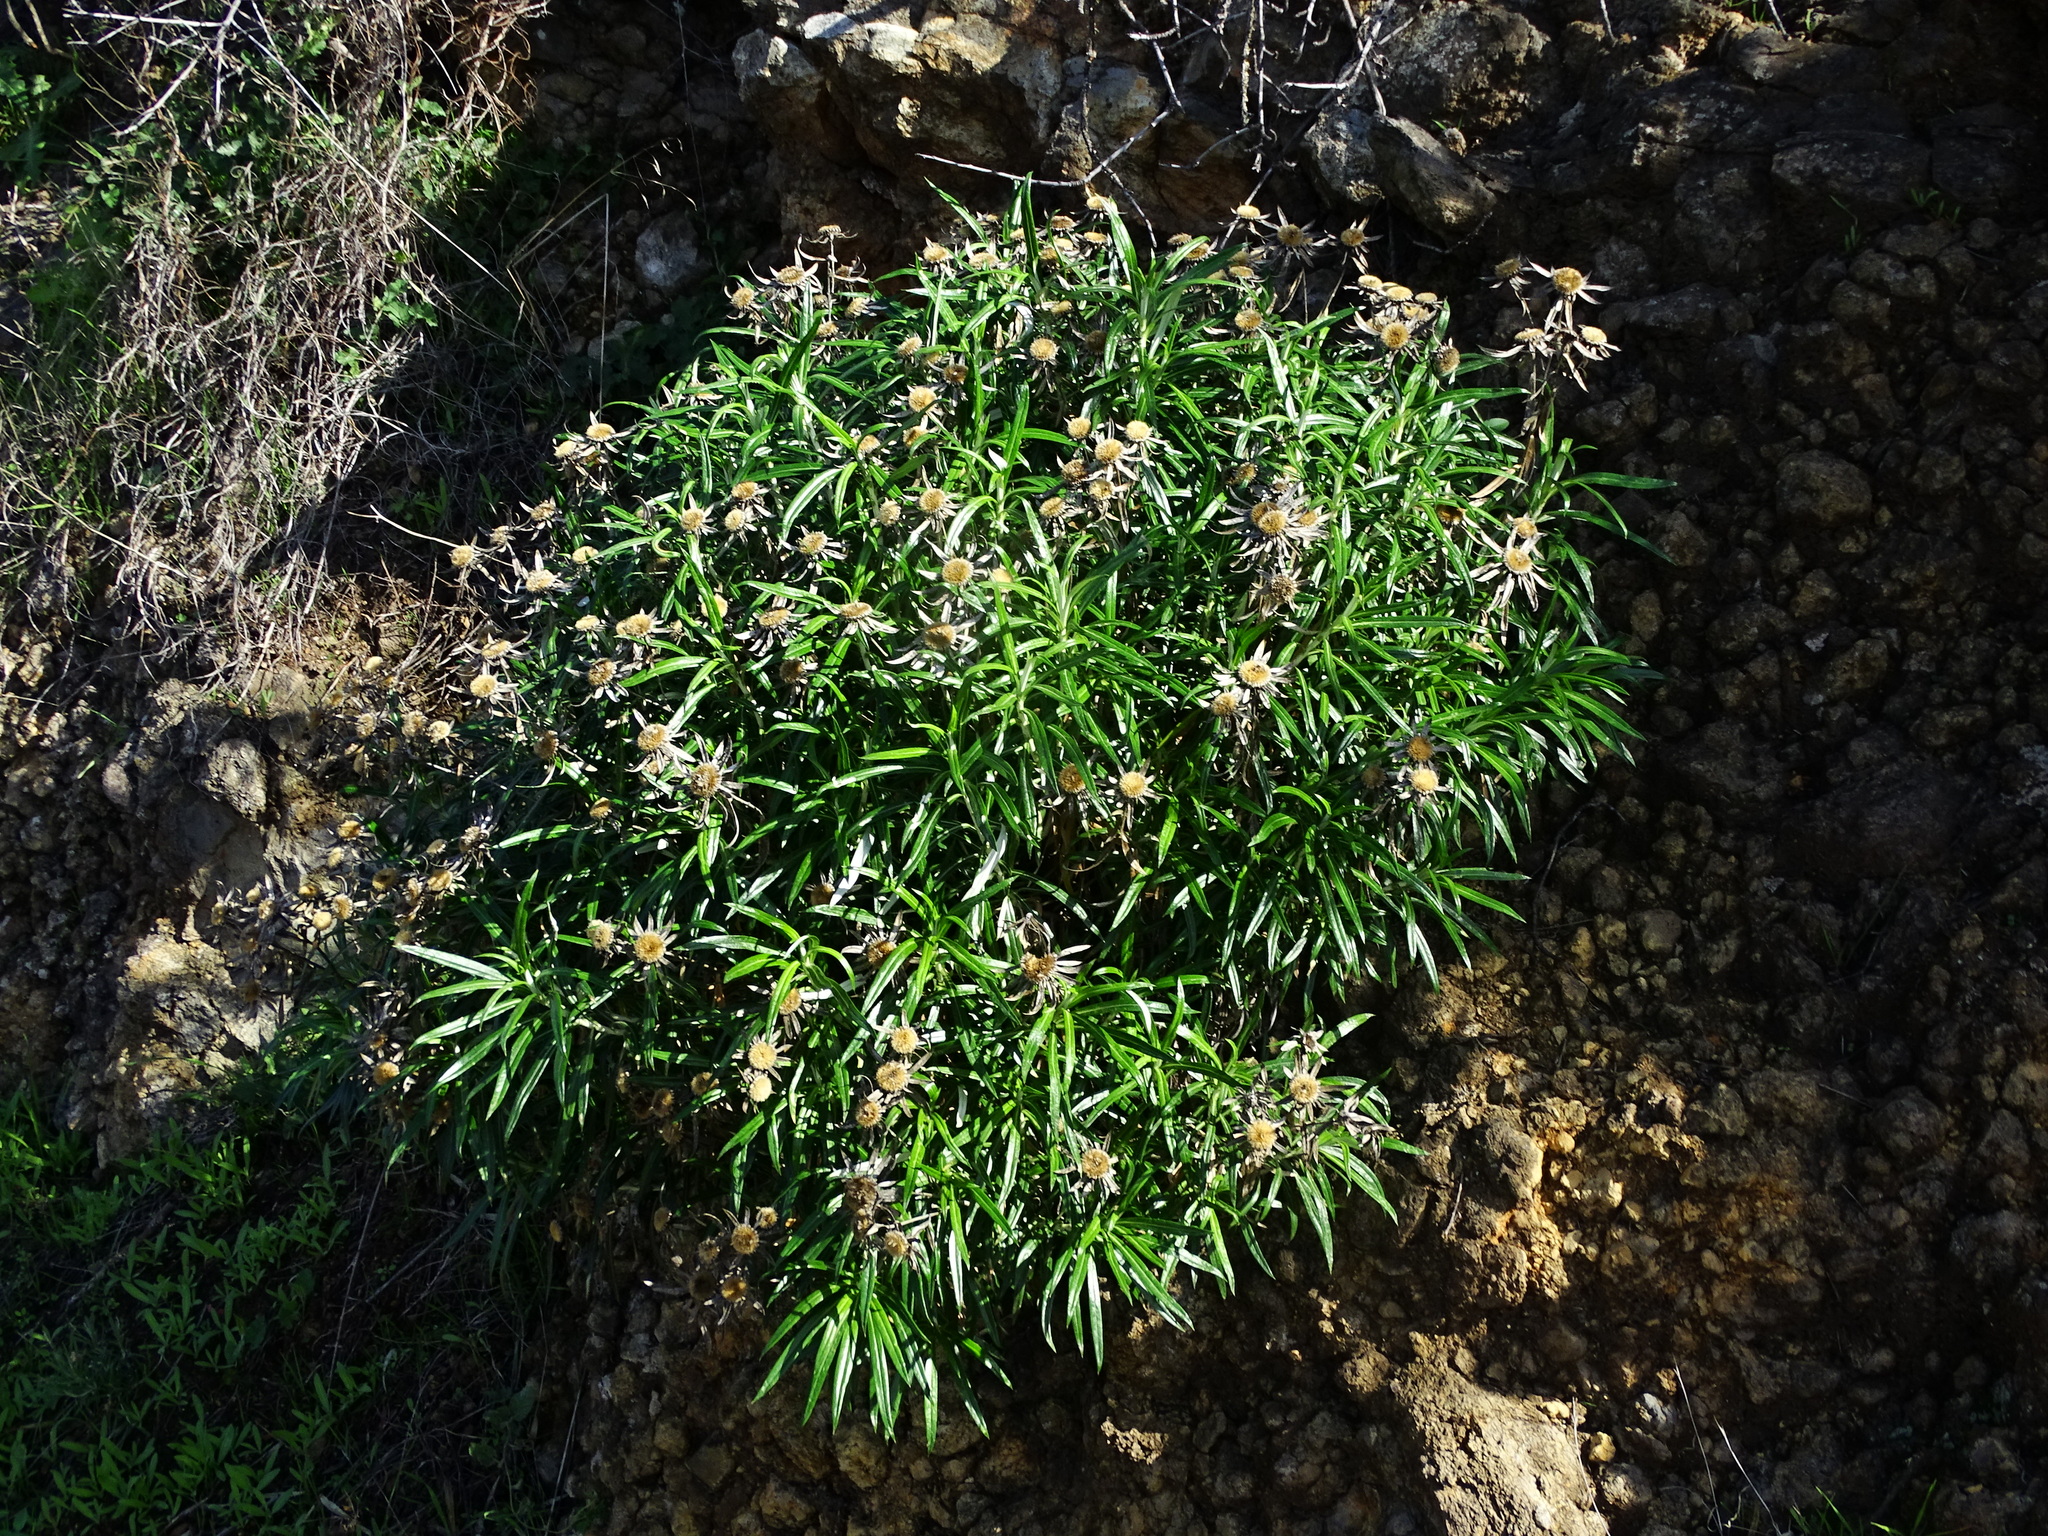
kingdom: Plantae
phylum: Tracheophyta
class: Magnoliopsida
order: Asterales
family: Asteraceae
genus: Carlina
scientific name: Carlina falcata
